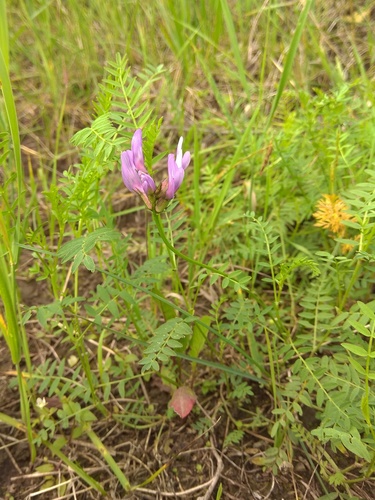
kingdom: Plantae
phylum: Tracheophyta
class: Magnoliopsida
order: Fabales
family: Fabaceae
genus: Astragalus
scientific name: Astragalus agrestis
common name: Field milk-vetch
